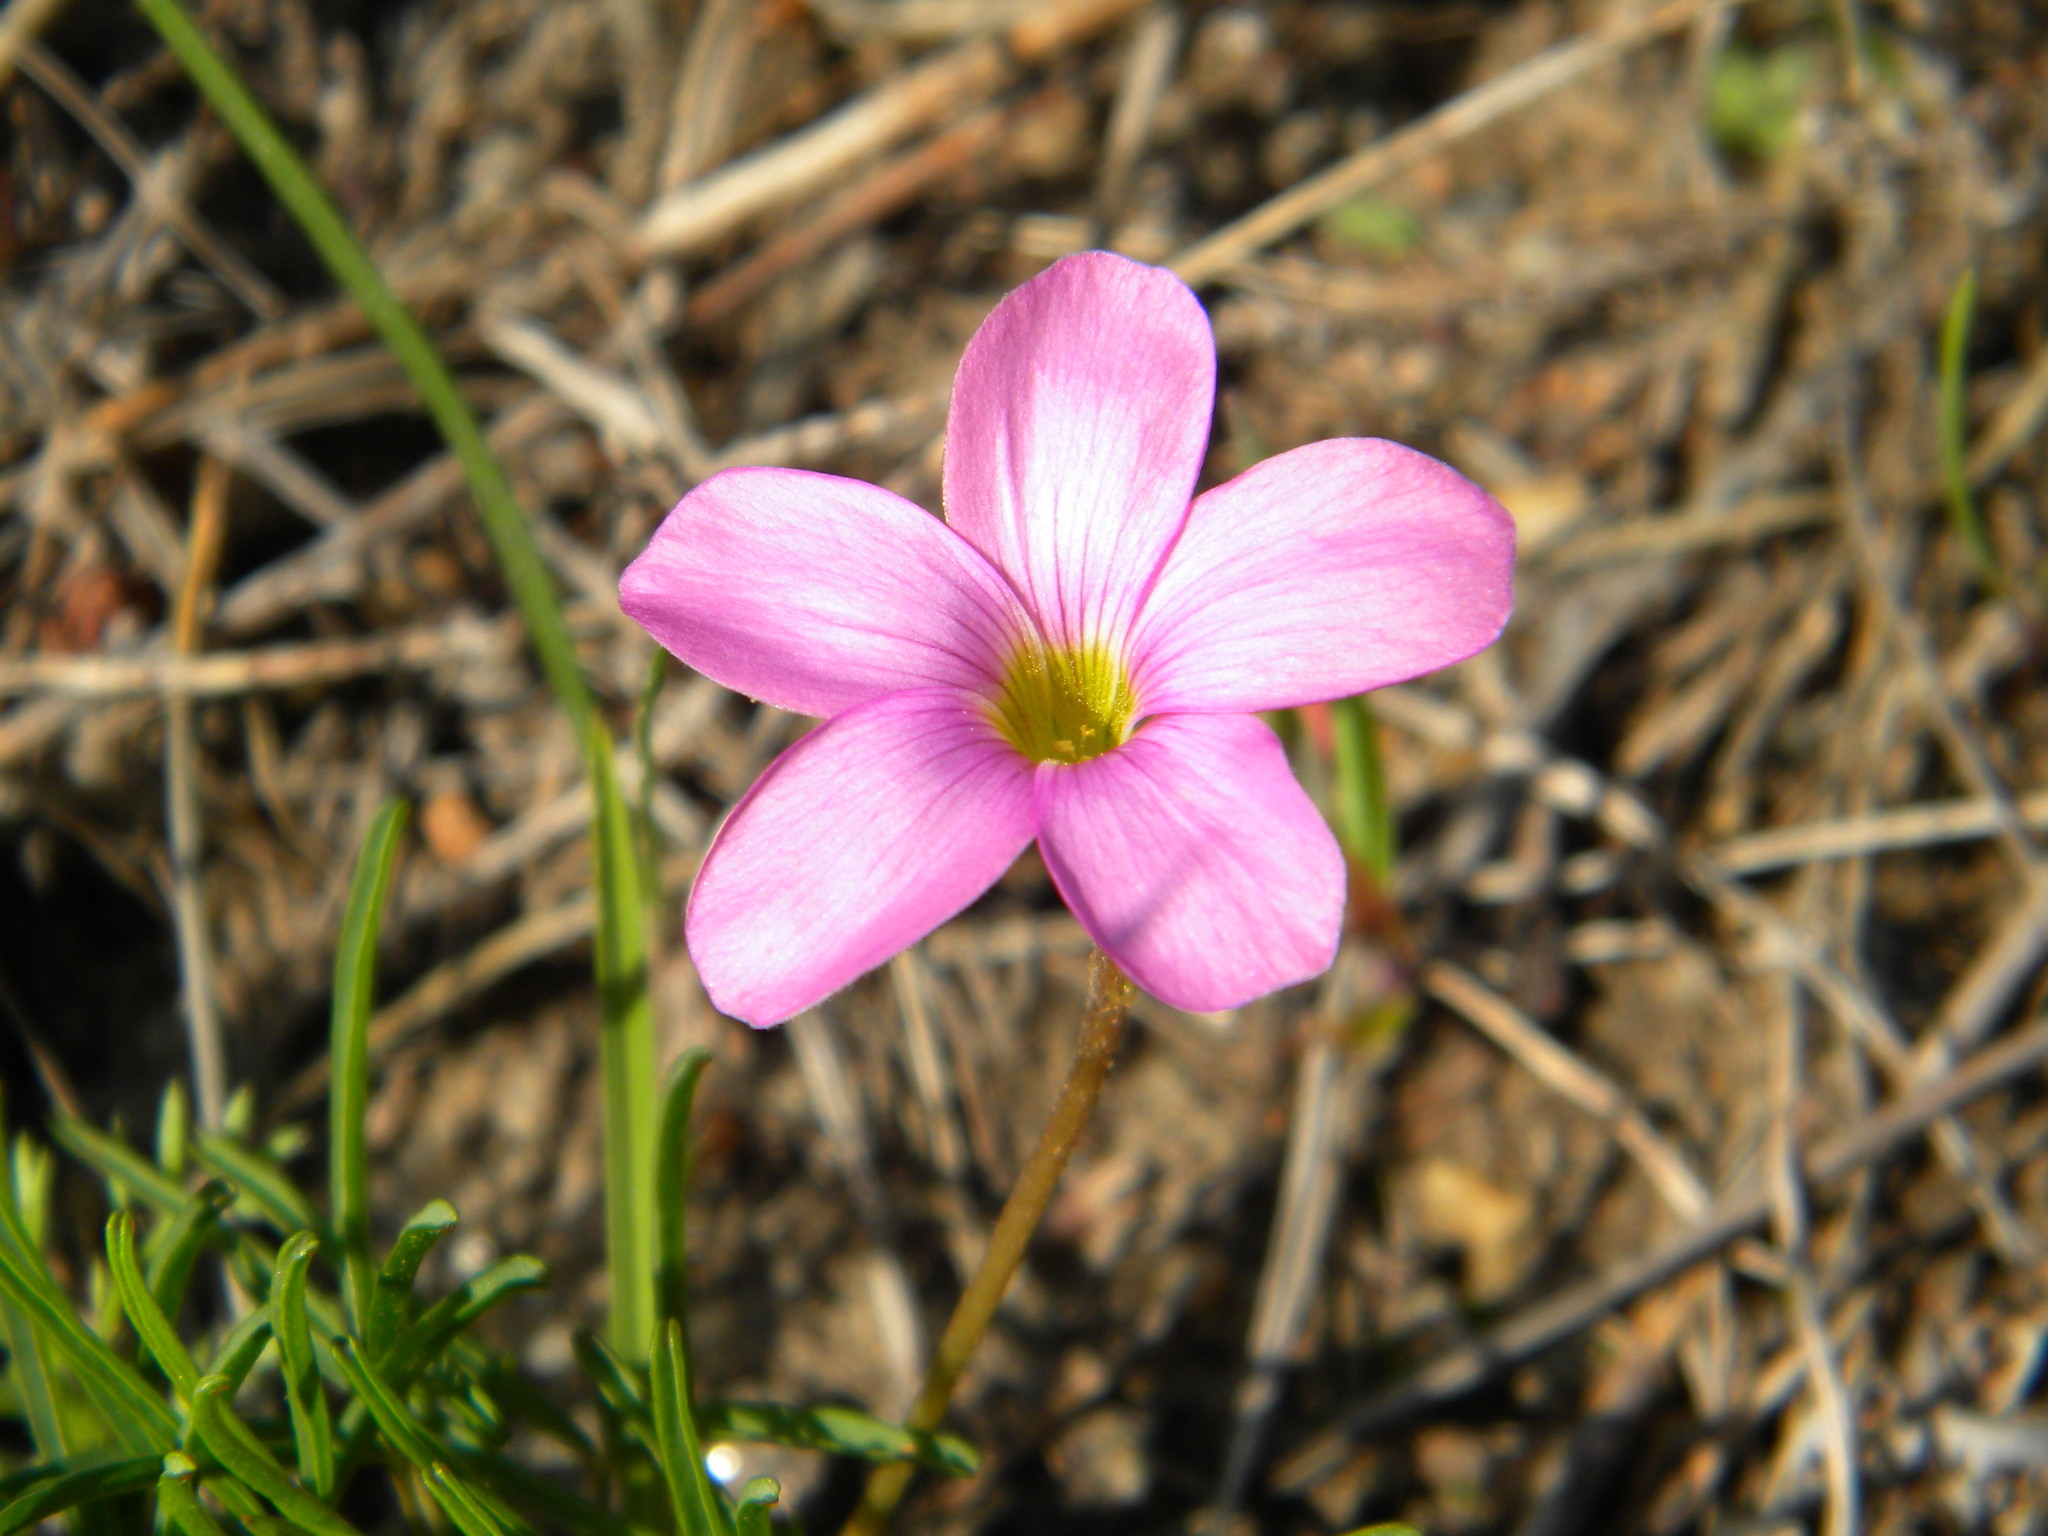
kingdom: Plantae
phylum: Tracheophyta
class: Magnoliopsida
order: Oxalidales
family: Oxalidaceae
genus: Oxalis
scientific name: Oxalis polyphylla
